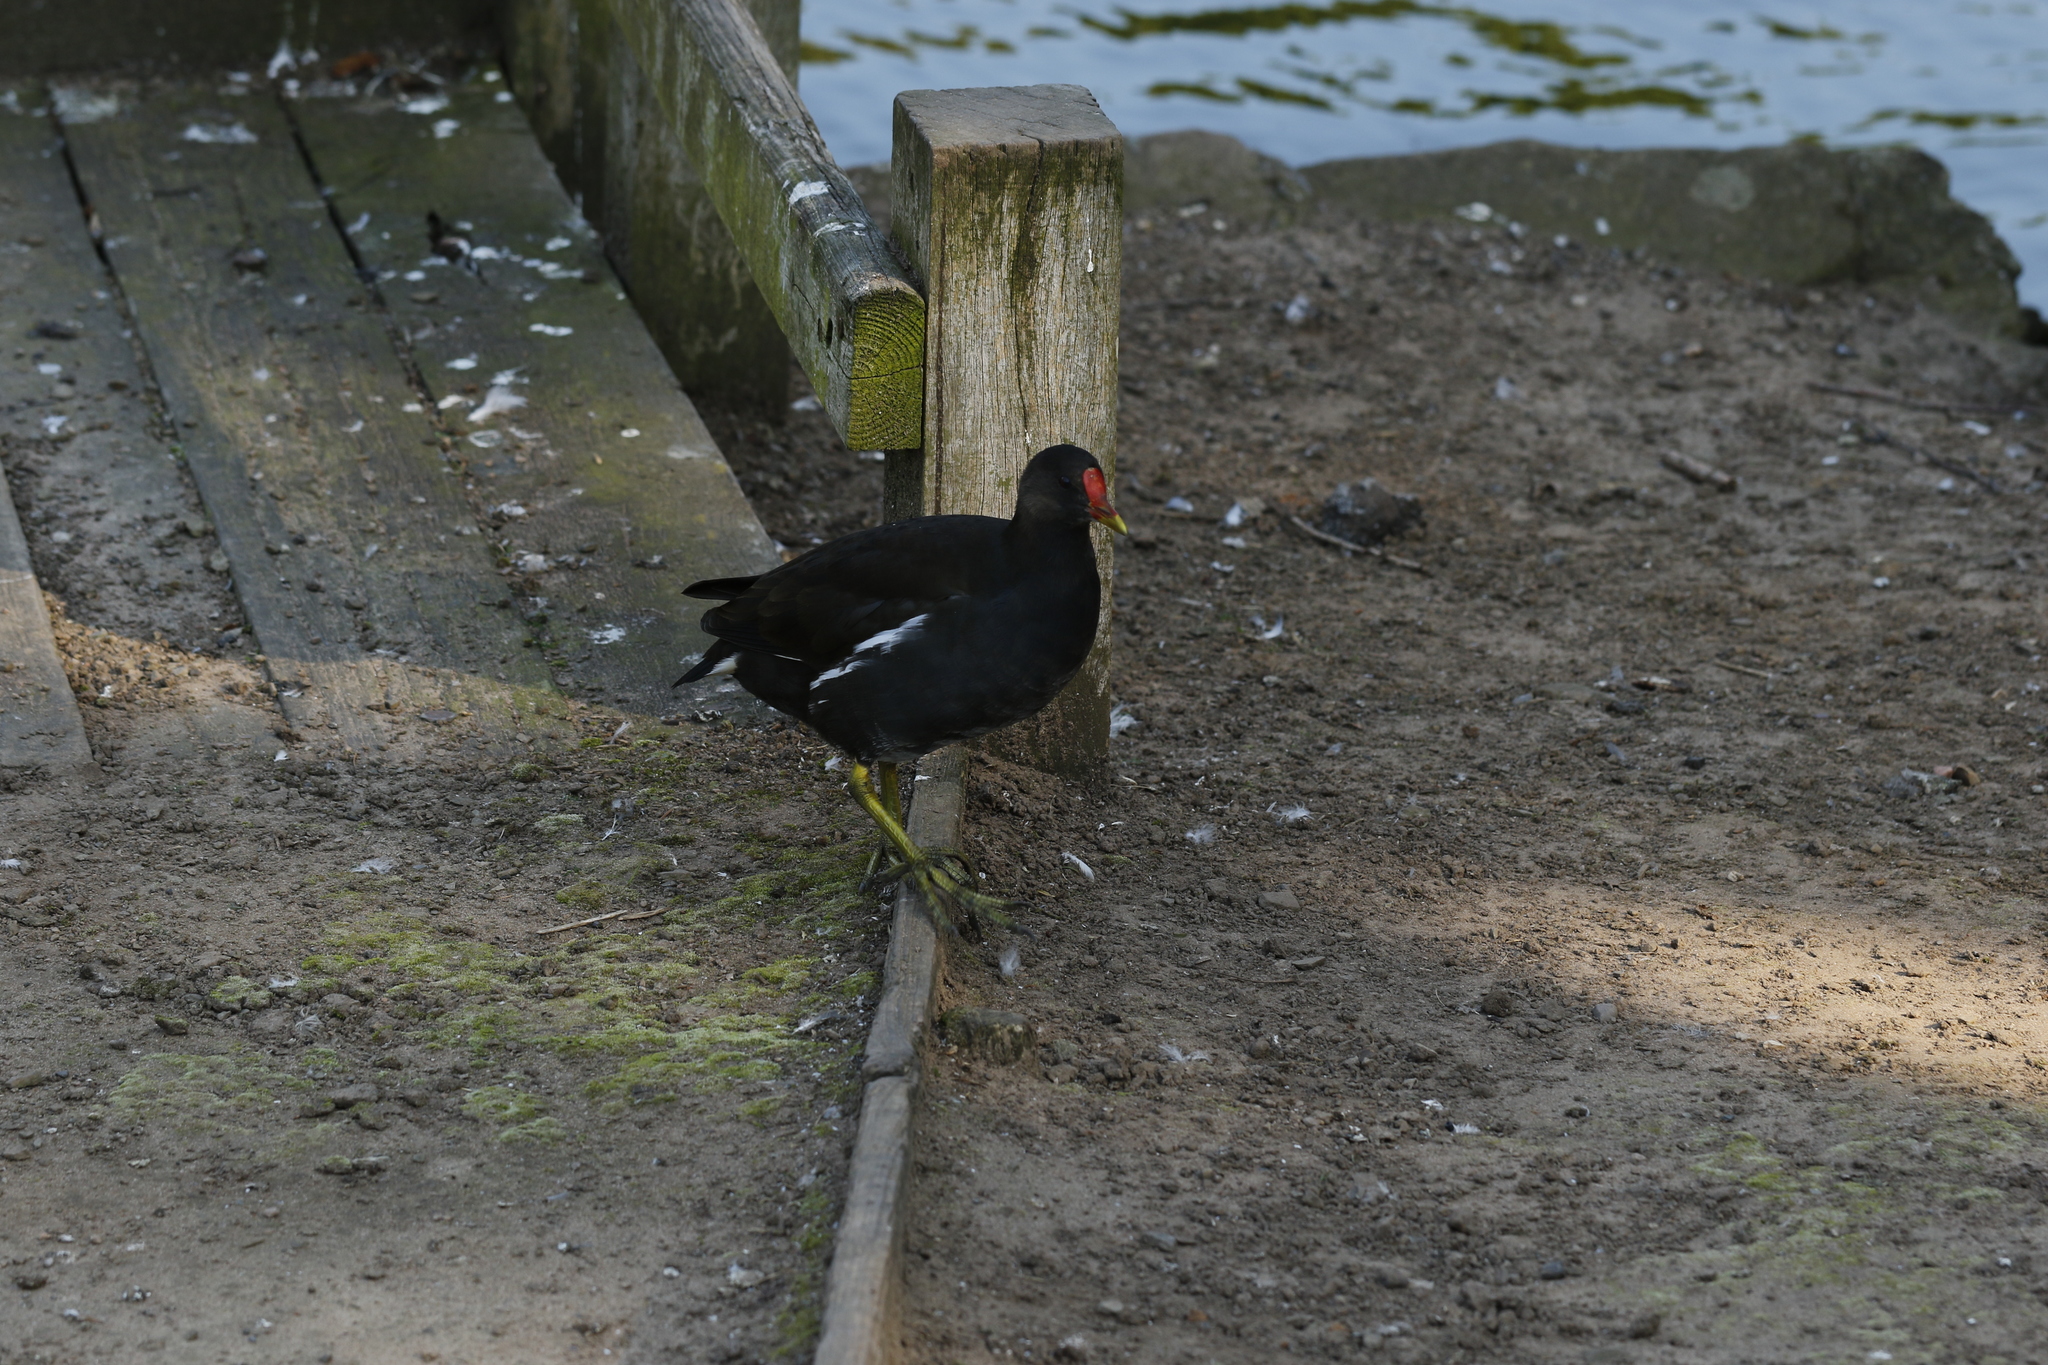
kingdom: Animalia
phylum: Chordata
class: Aves
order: Gruiformes
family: Rallidae
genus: Gallinula
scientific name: Gallinula chloropus
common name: Common moorhen
